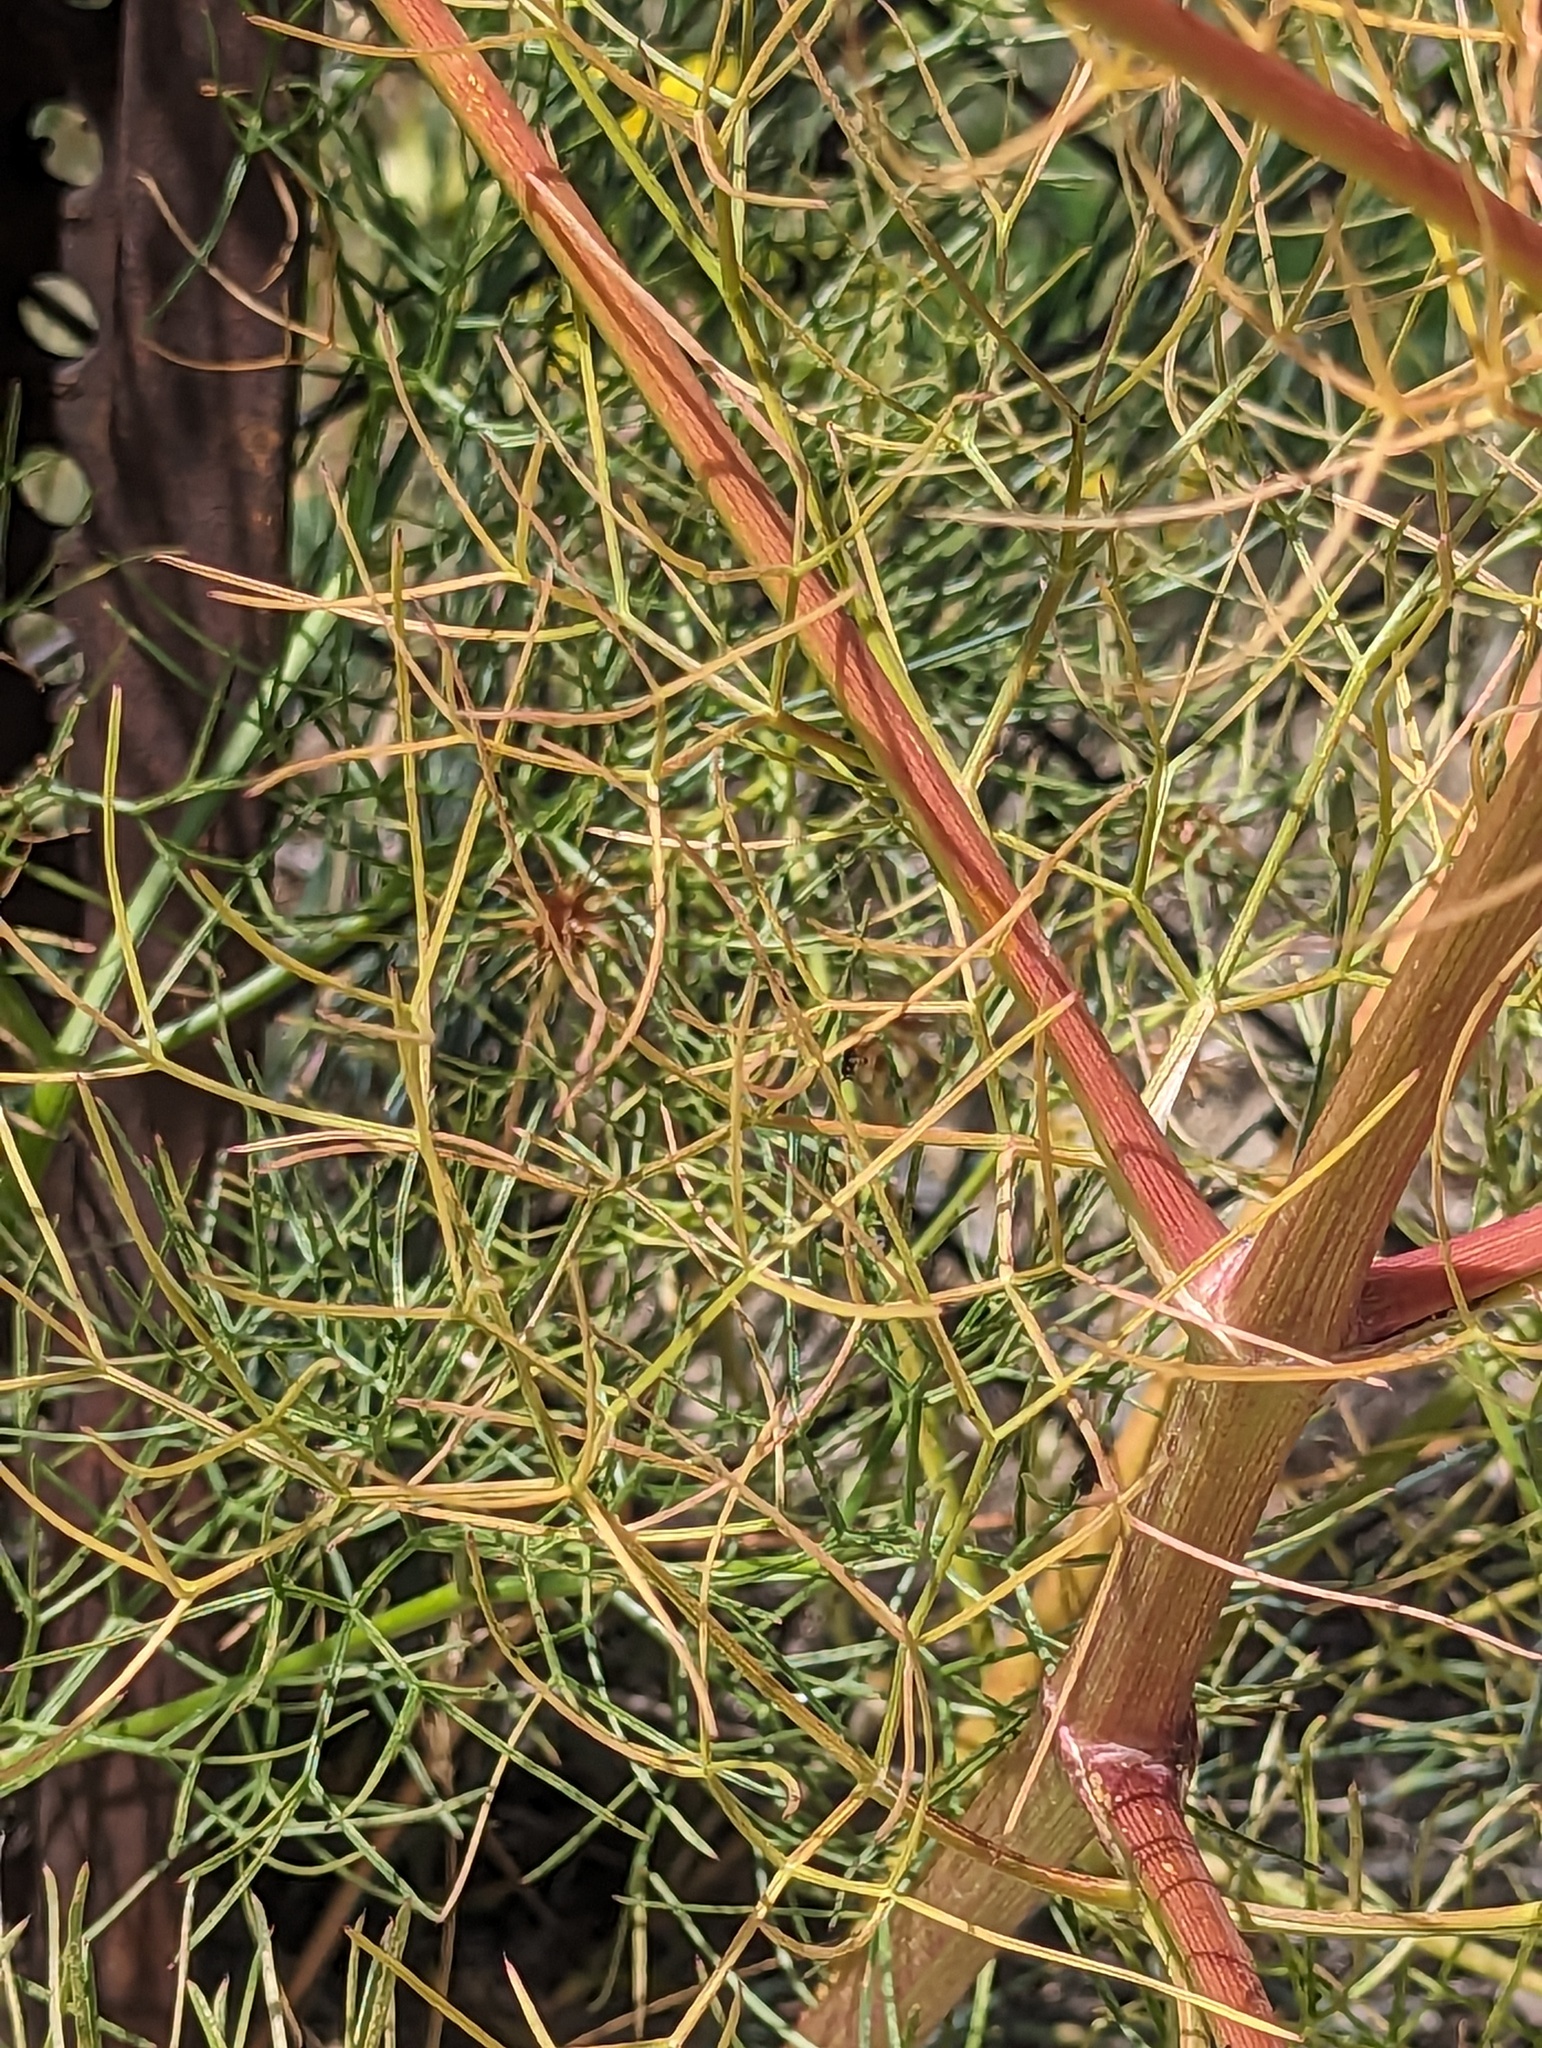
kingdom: Plantae
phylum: Tracheophyta
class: Magnoliopsida
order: Apiales
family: Apiaceae
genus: Prangos
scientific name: Prangos ferulacea
